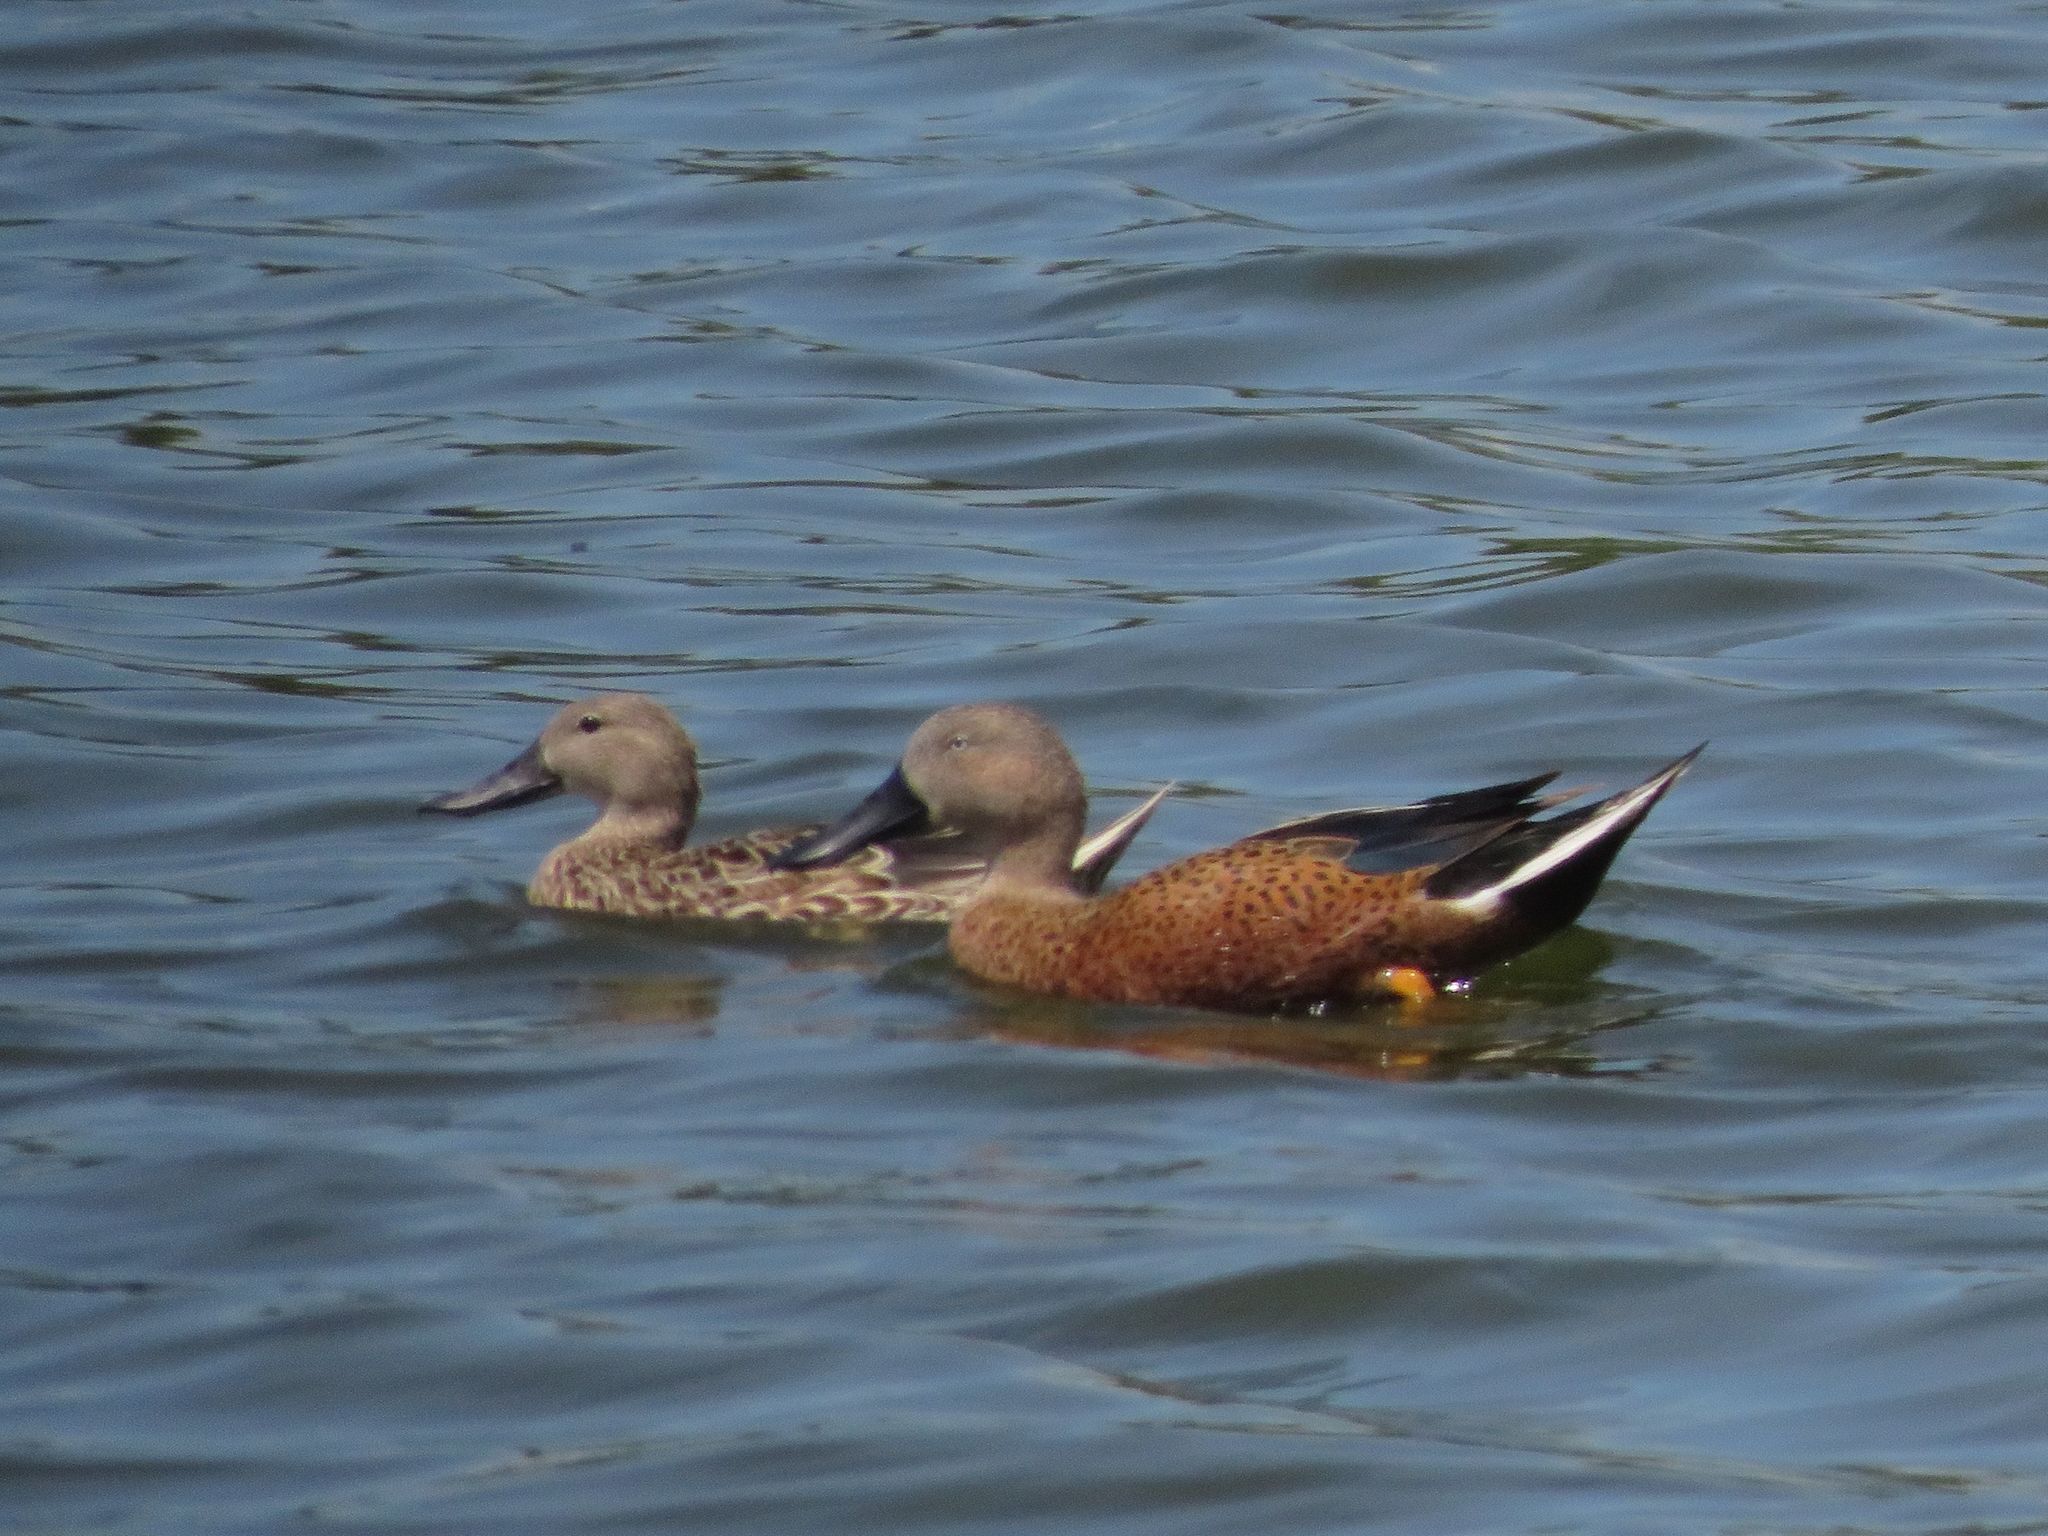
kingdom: Animalia
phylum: Chordata
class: Aves
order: Anseriformes
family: Anatidae
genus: Spatula
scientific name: Spatula platalea
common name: Red shoveler
